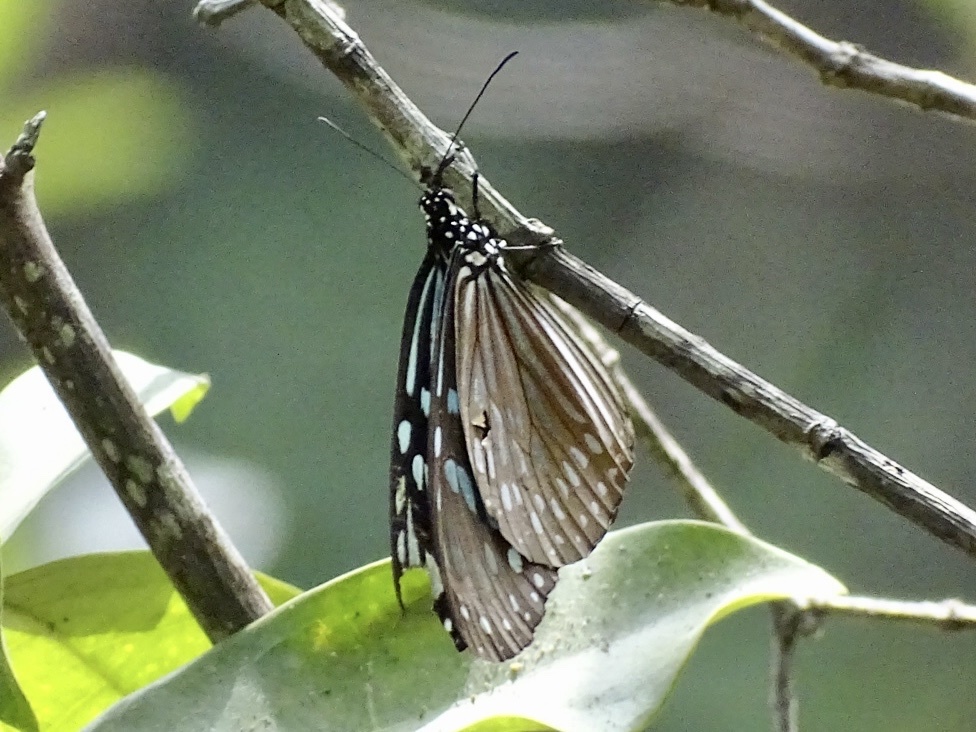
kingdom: Animalia
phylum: Arthropoda
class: Insecta
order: Lepidoptera
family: Nymphalidae
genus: Ideopsis
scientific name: Ideopsis similis
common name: Ceylon blue glassy tiger
